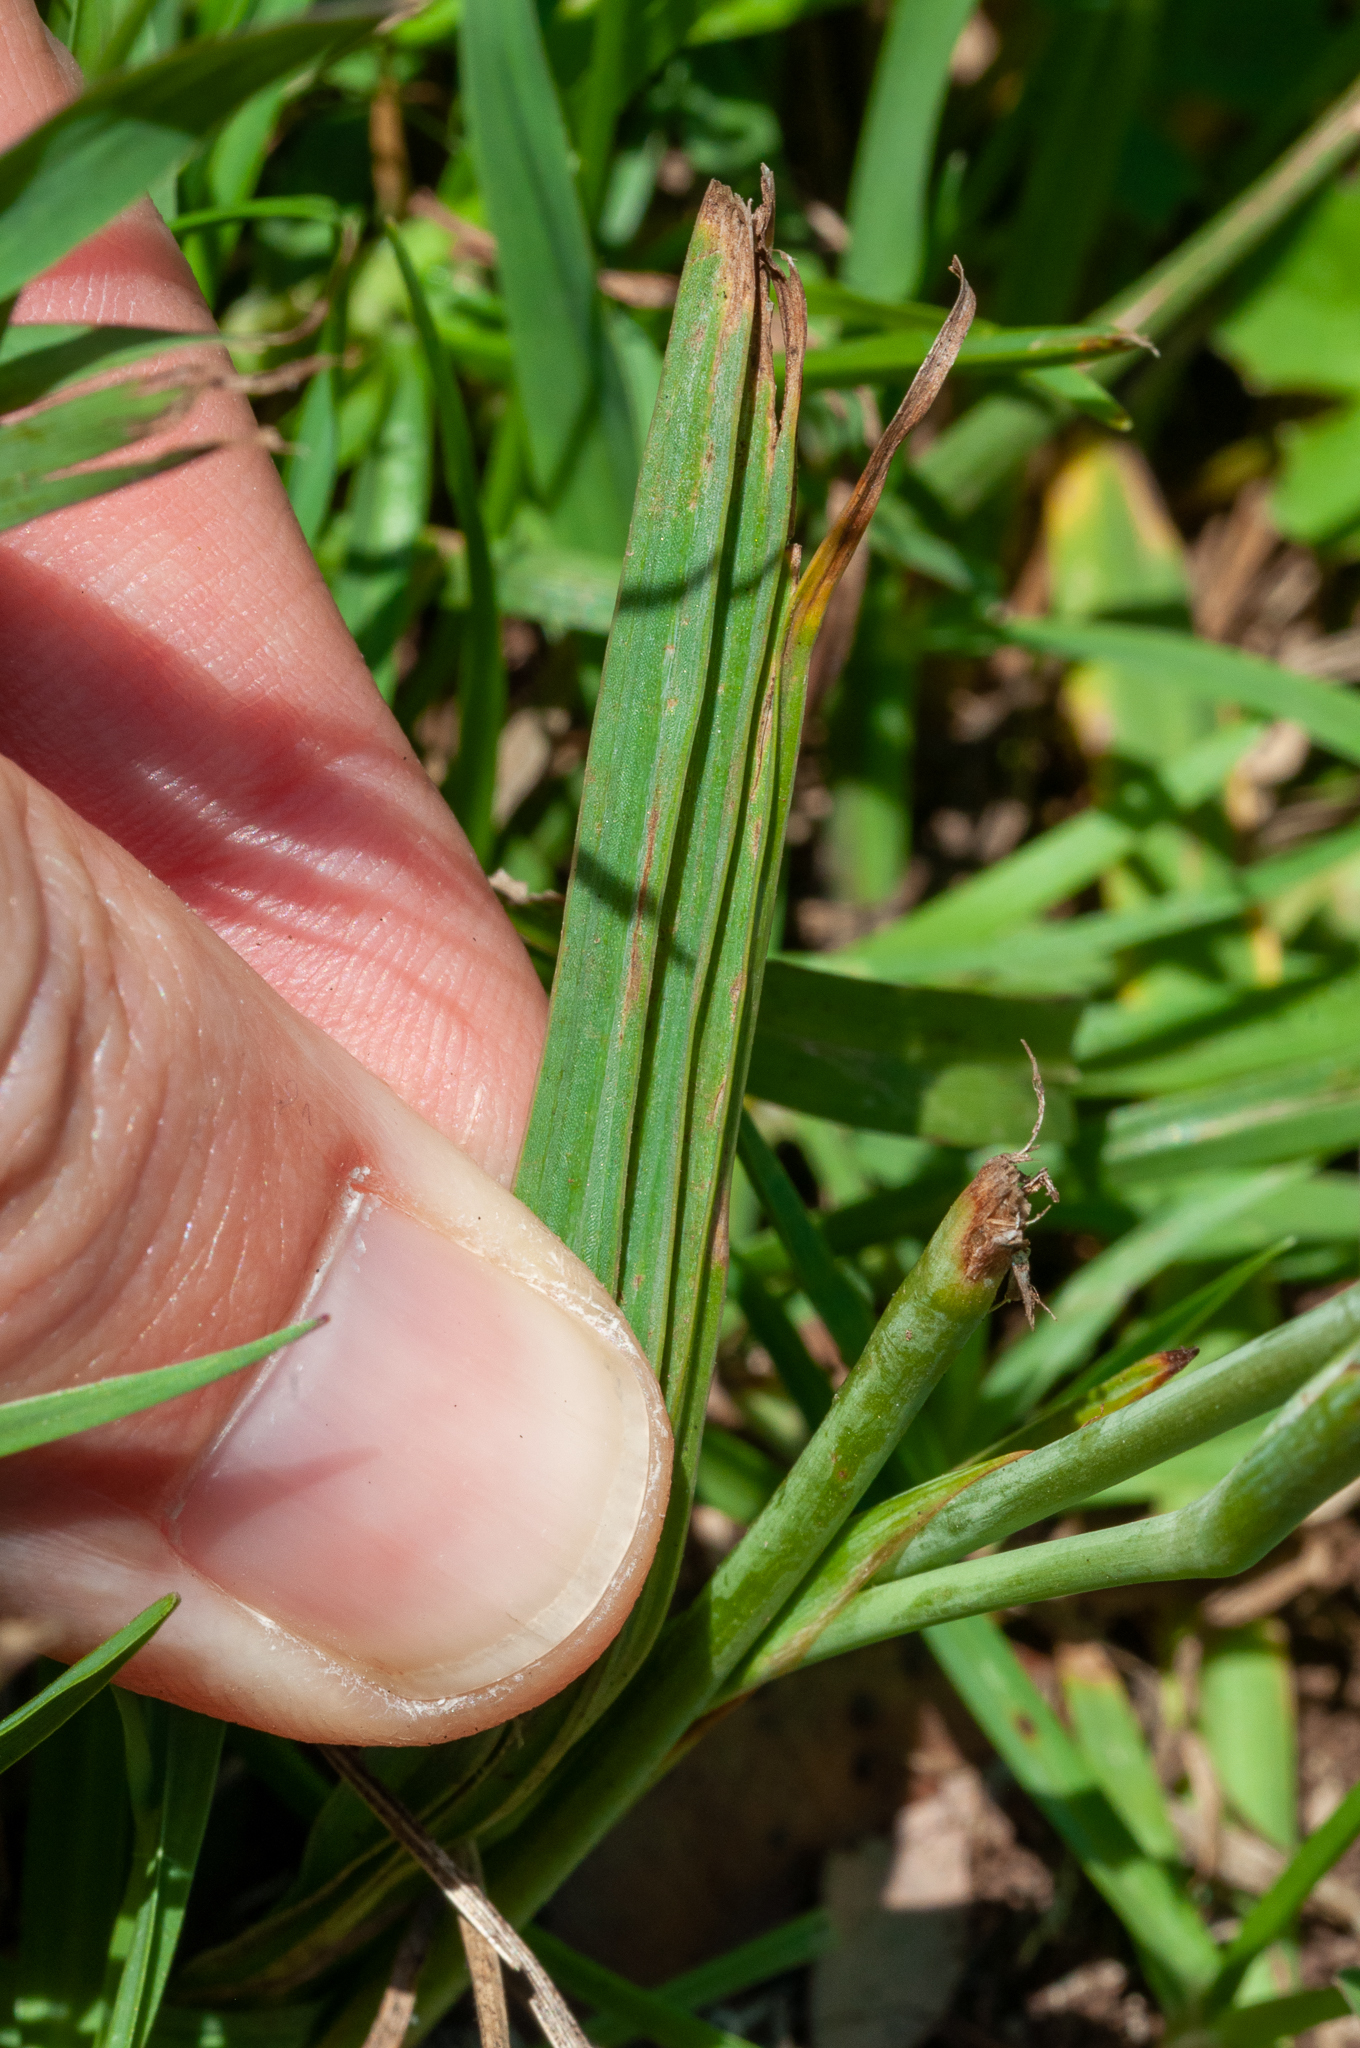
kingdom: Plantae
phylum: Tracheophyta
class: Liliopsida
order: Asparagales
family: Iridaceae
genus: Herbertia
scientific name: Herbertia lahue
